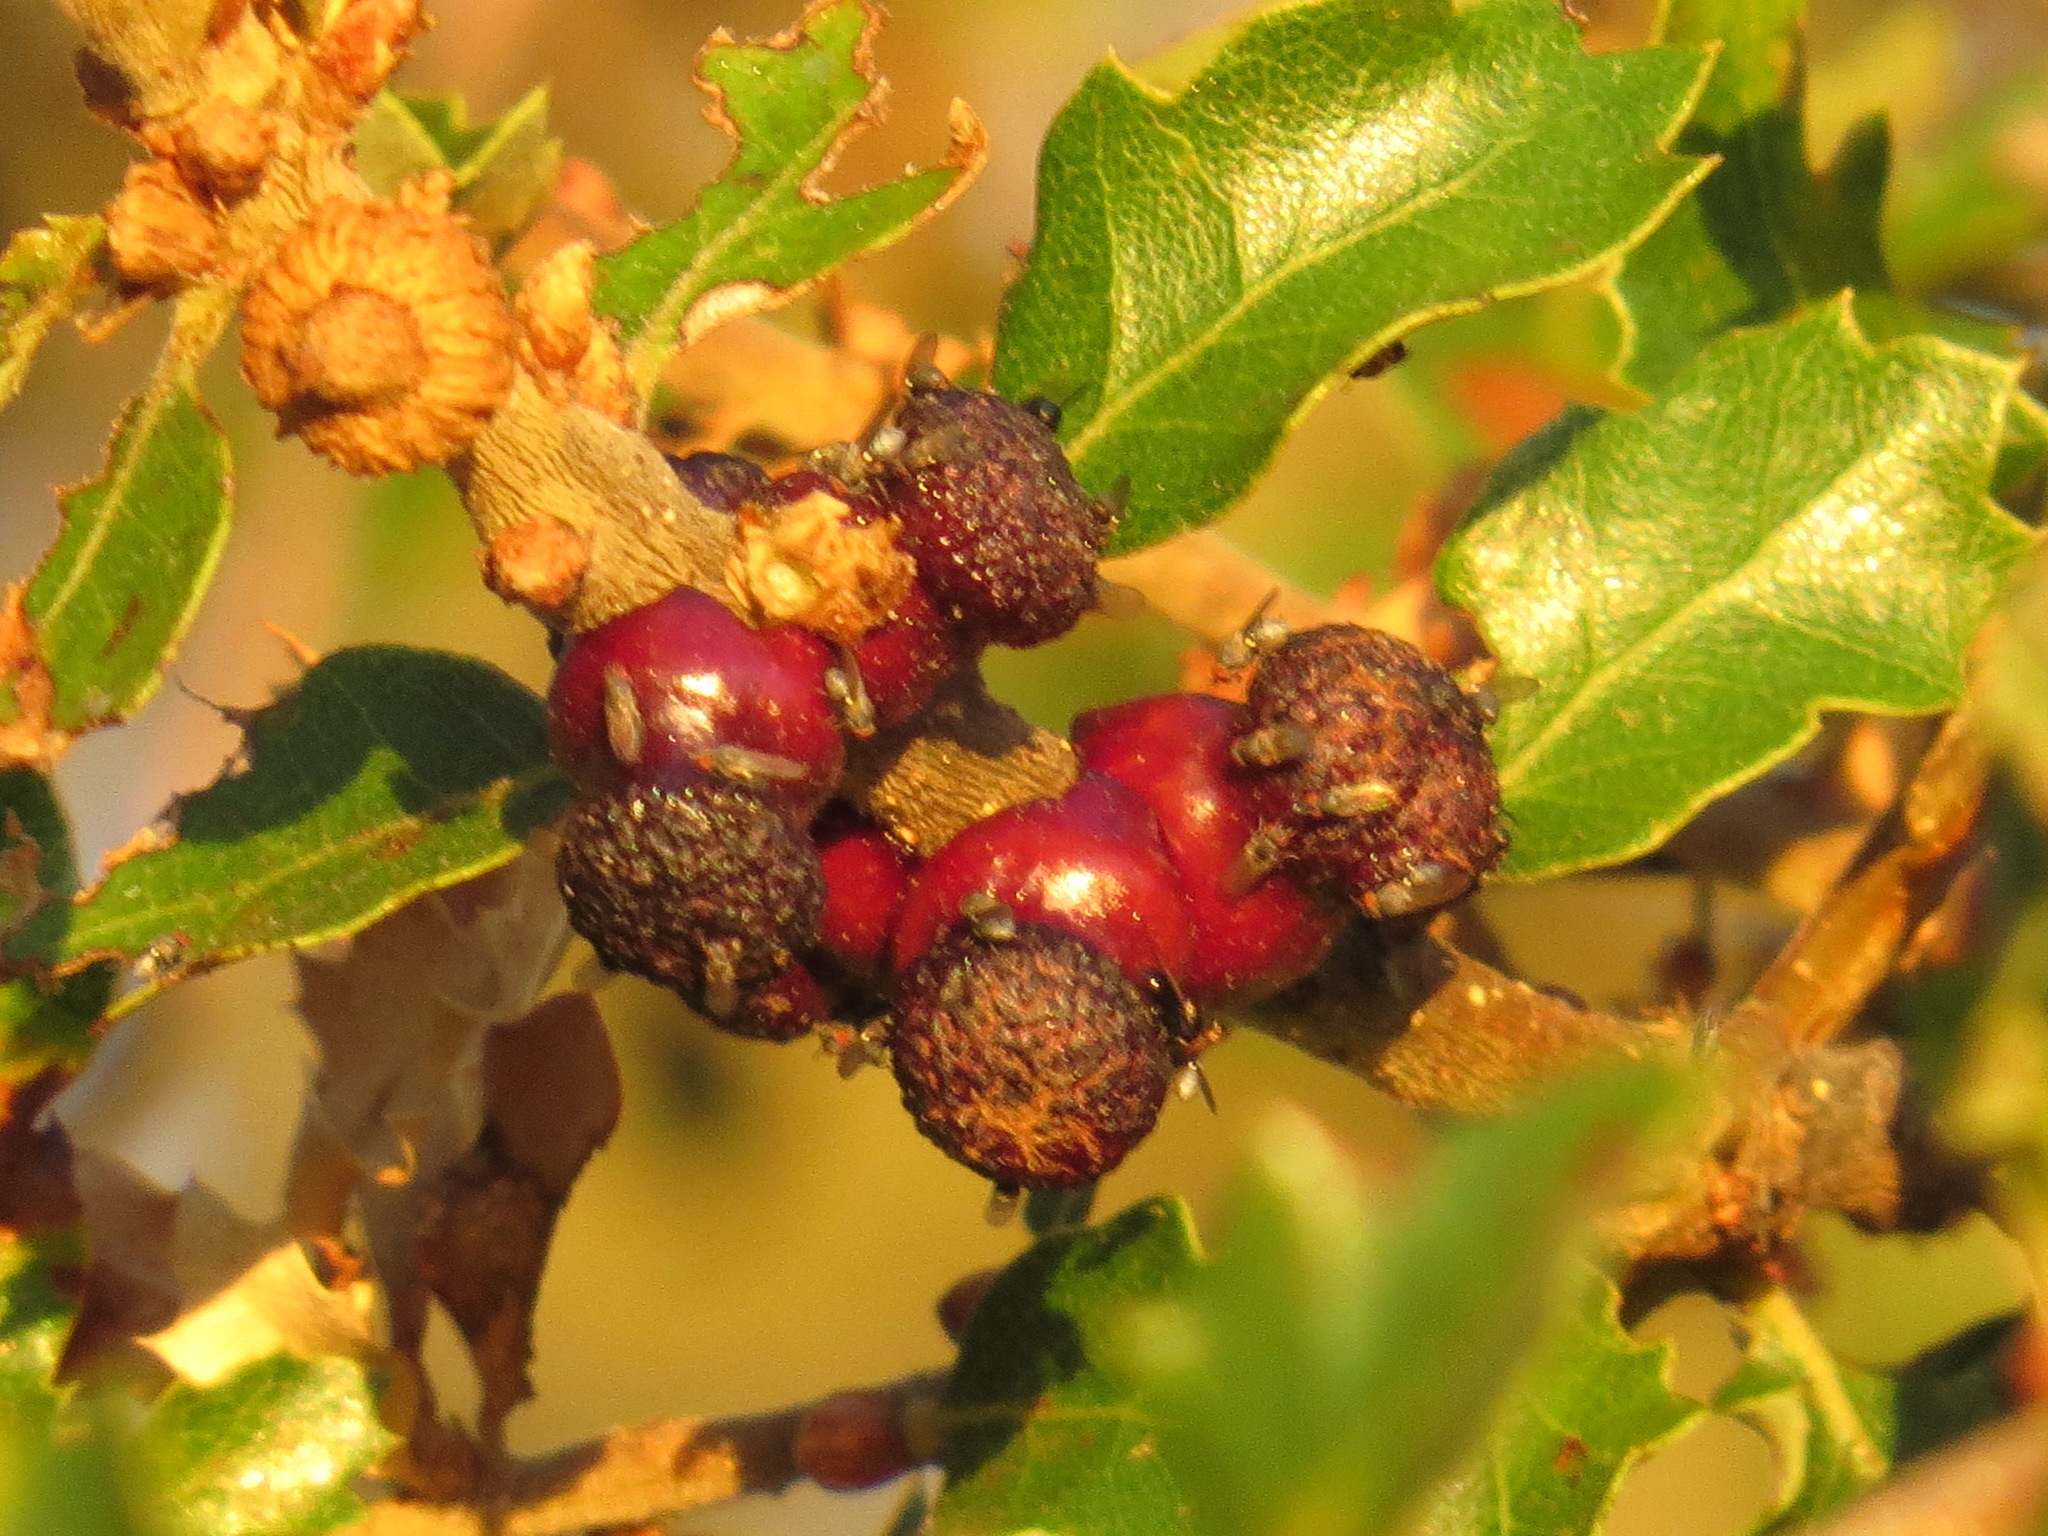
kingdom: Animalia
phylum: Arthropoda
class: Insecta
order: Hymenoptera
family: Cynipidae
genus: Disholcaspis
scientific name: Disholcaspis prehensa
